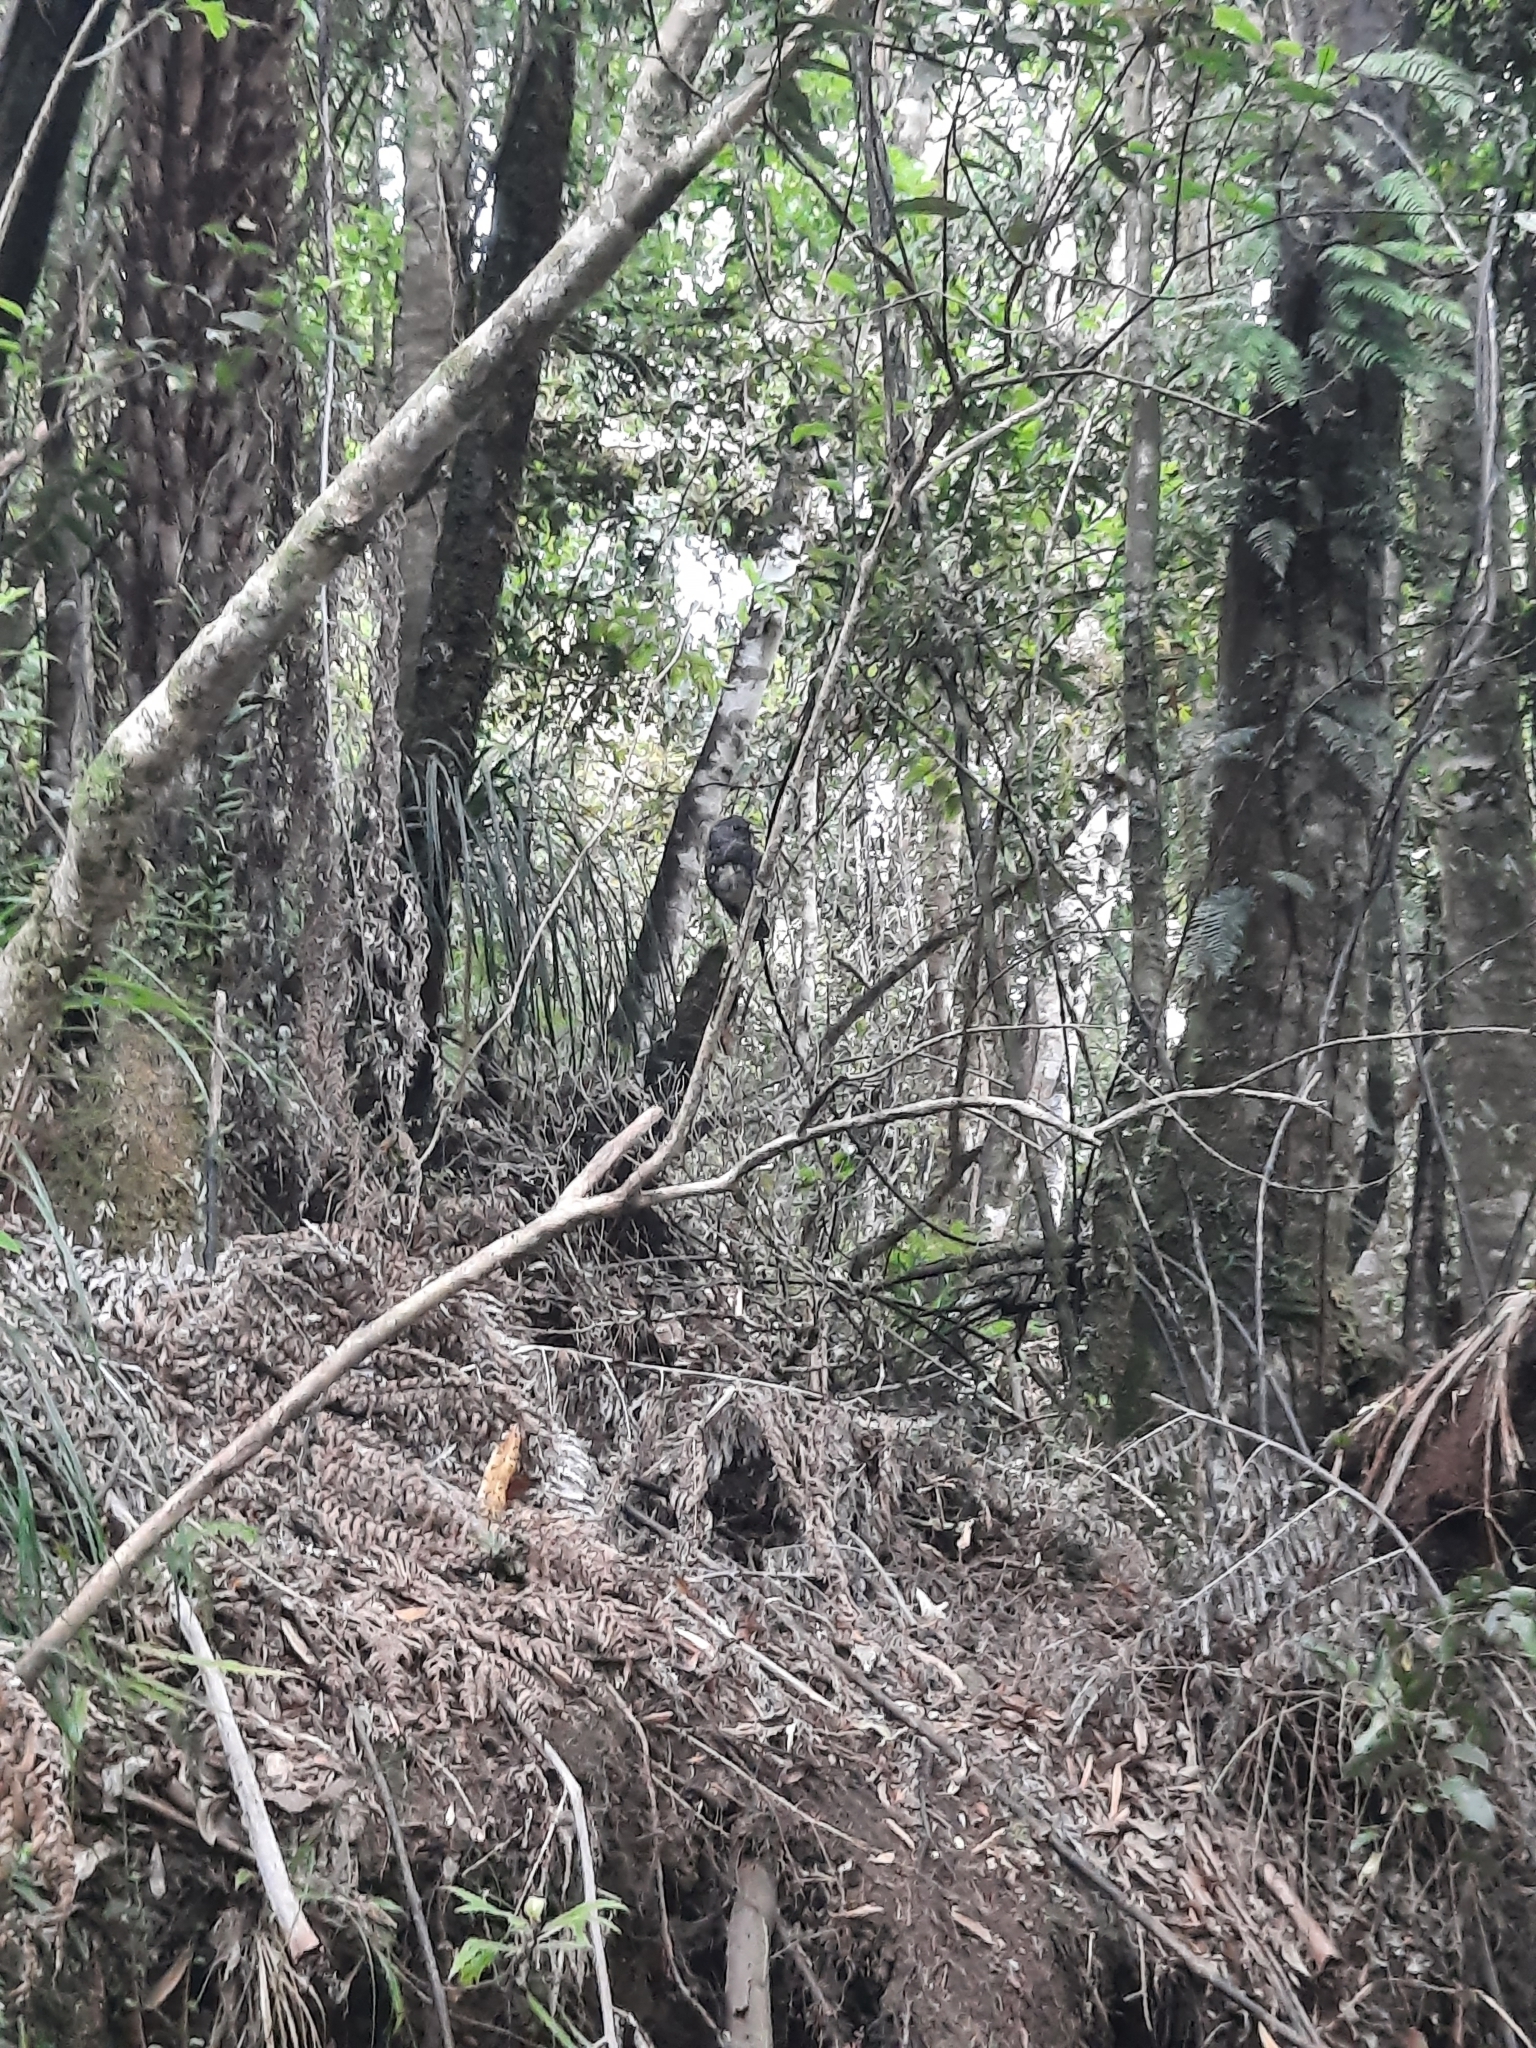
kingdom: Animalia
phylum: Chordata
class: Aves
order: Passeriformes
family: Petroicidae
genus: Petroica
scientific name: Petroica australis
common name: New zealand robin
